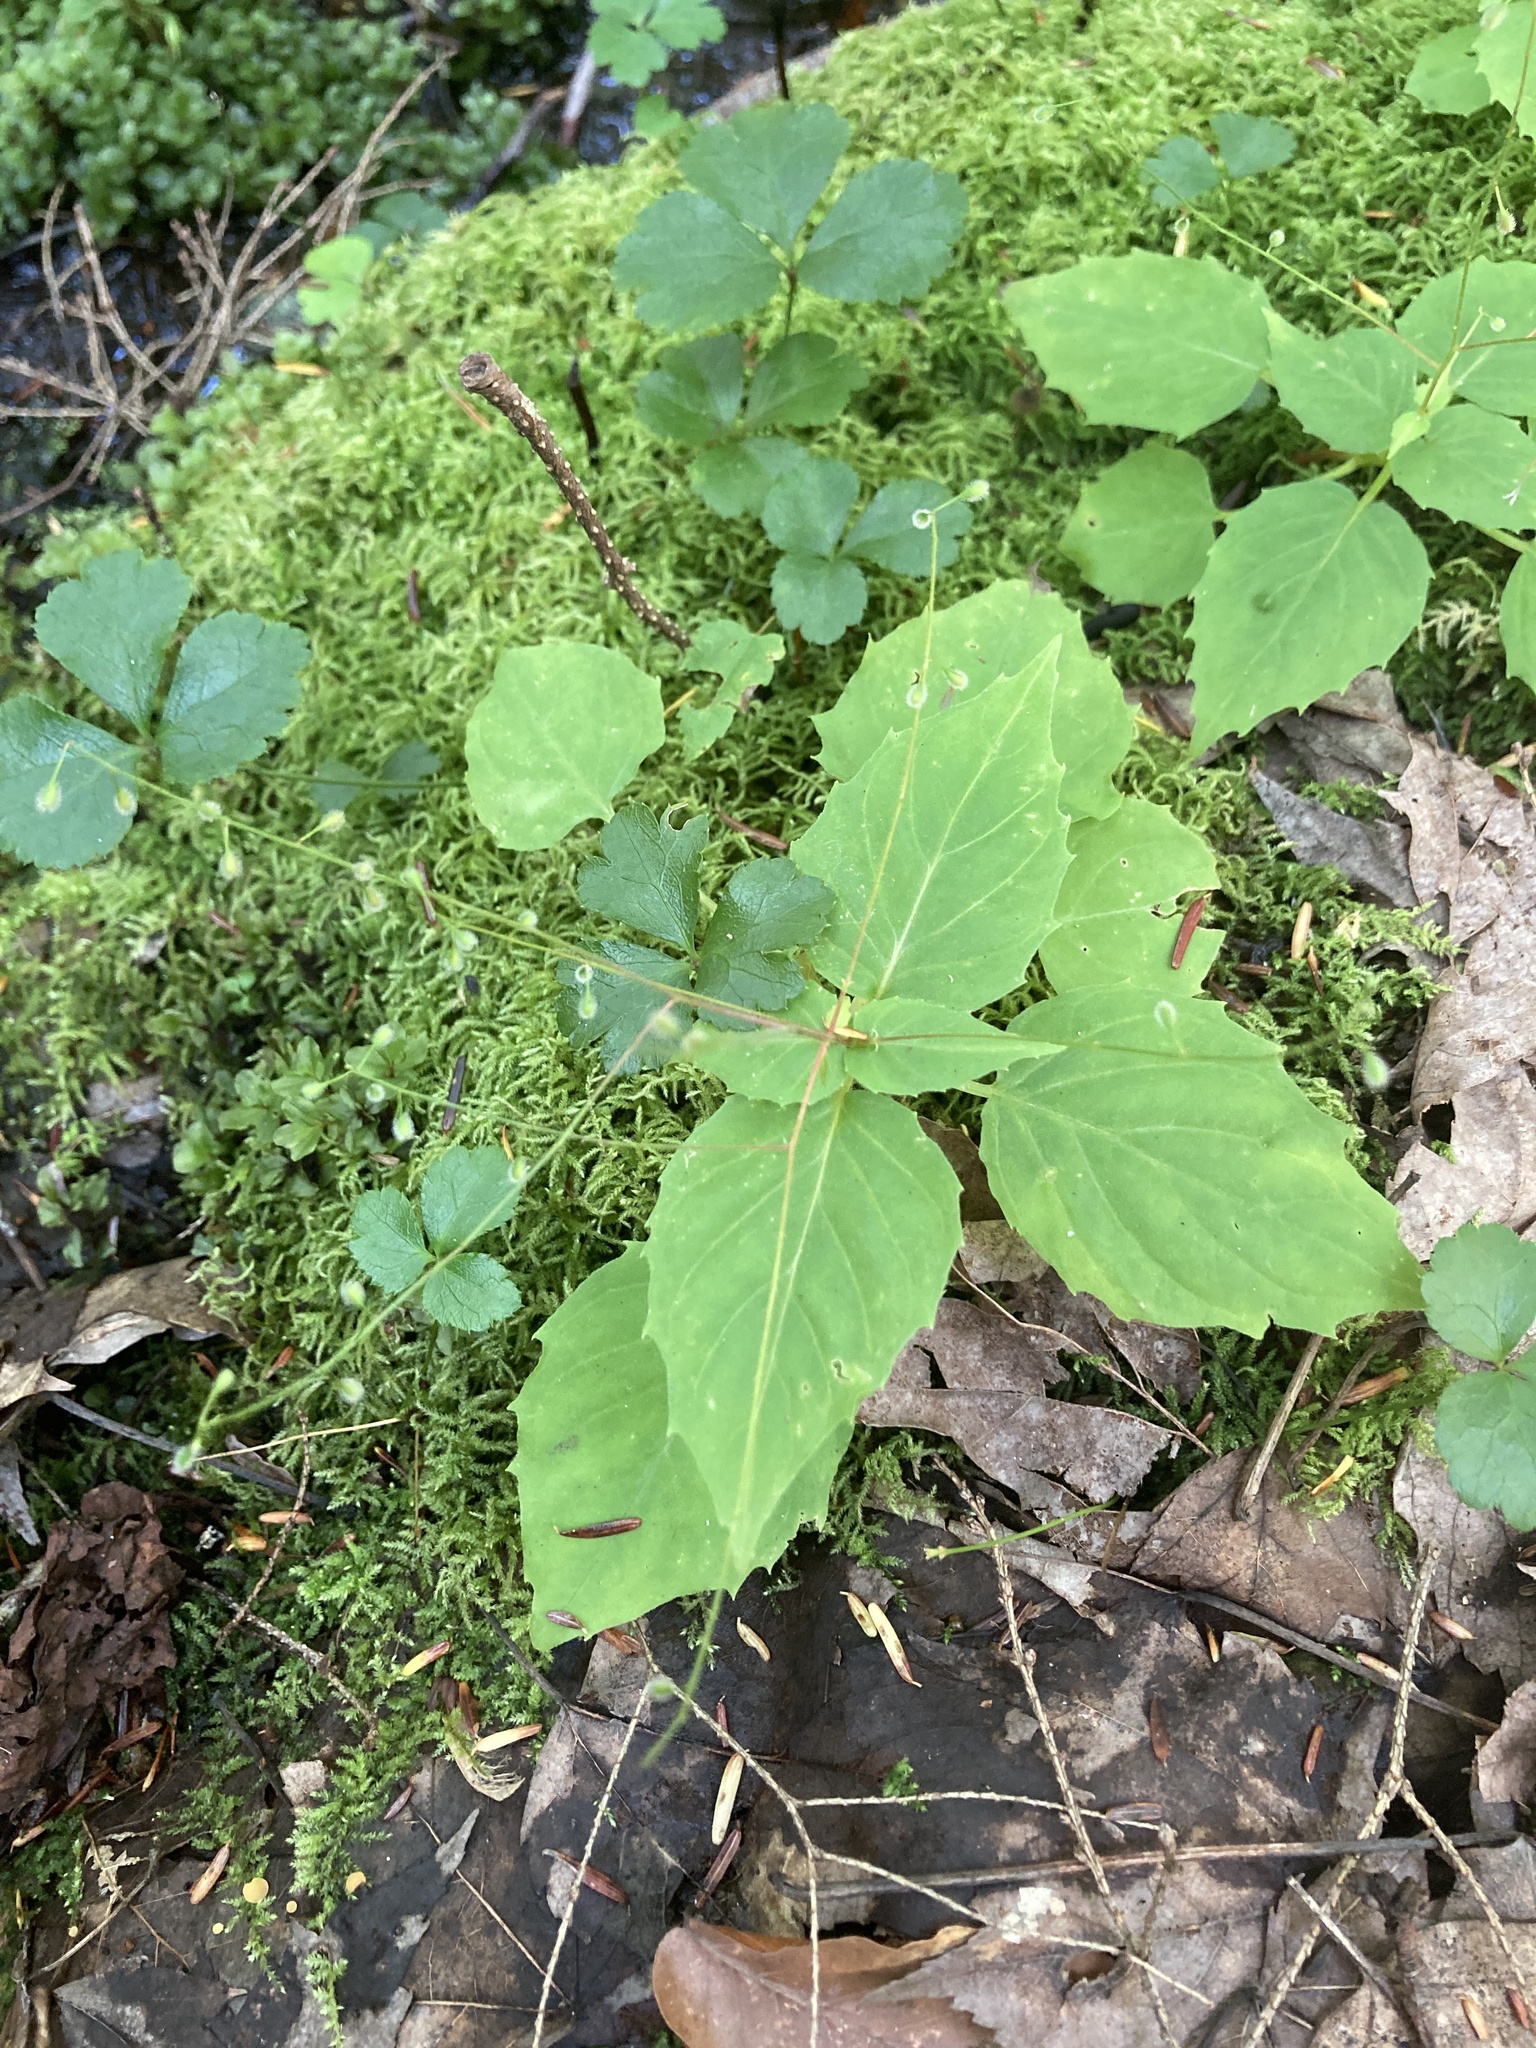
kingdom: Plantae
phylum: Tracheophyta
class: Magnoliopsida
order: Myrtales
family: Onagraceae
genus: Circaea
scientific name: Circaea canadensis
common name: Broad-leaved enchanter's nightshade
